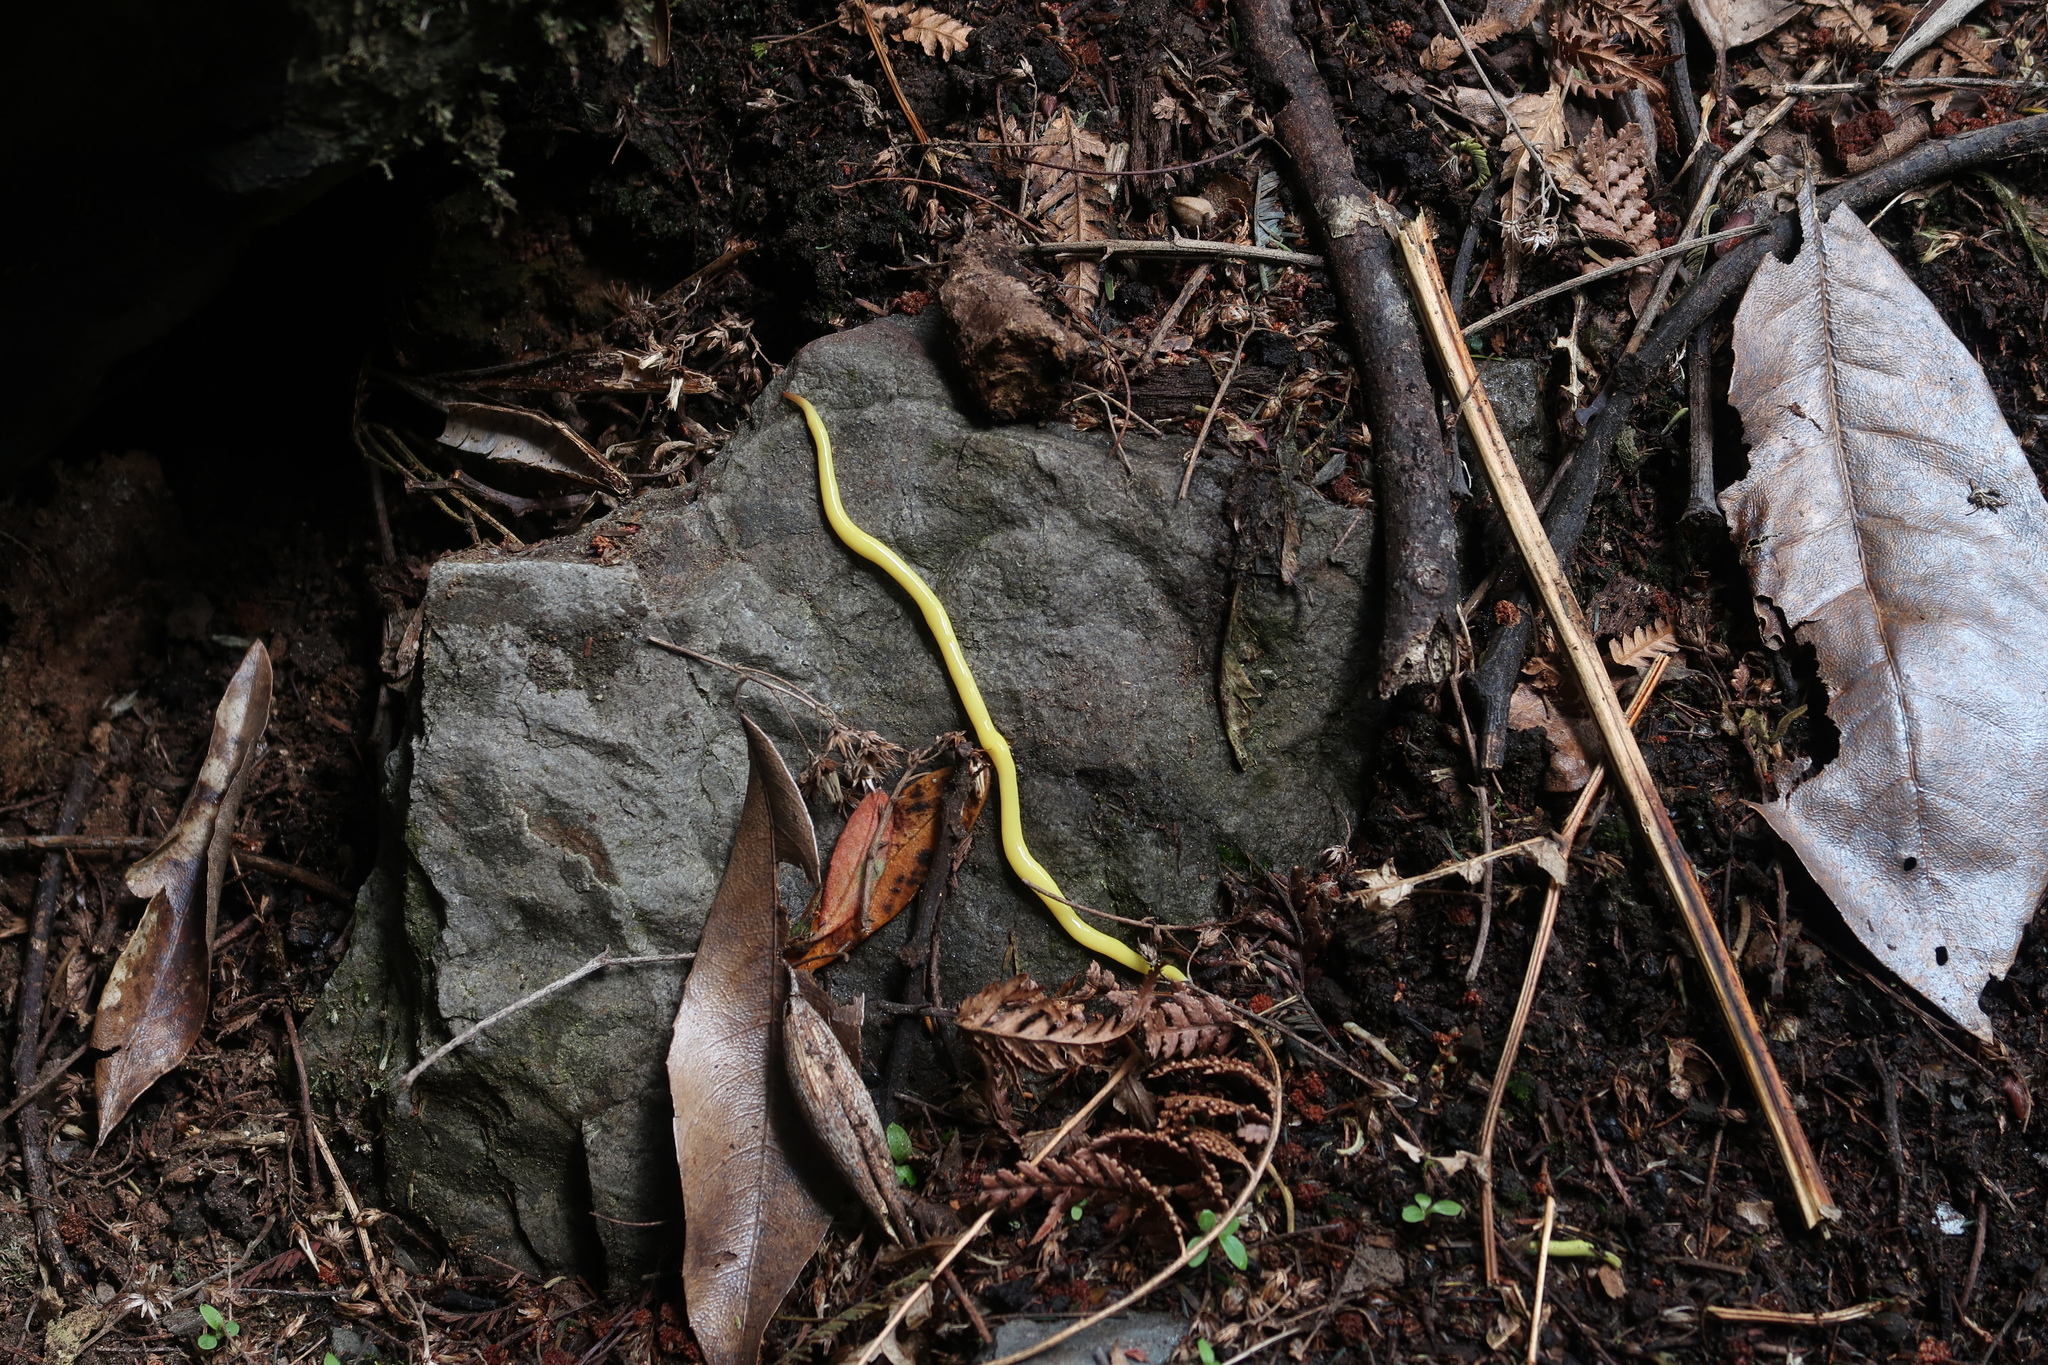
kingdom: Animalia
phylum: Platyhelminthes
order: Tricladida
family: Geoplanidae
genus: Fletchamia
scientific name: Fletchamia sugdeni
